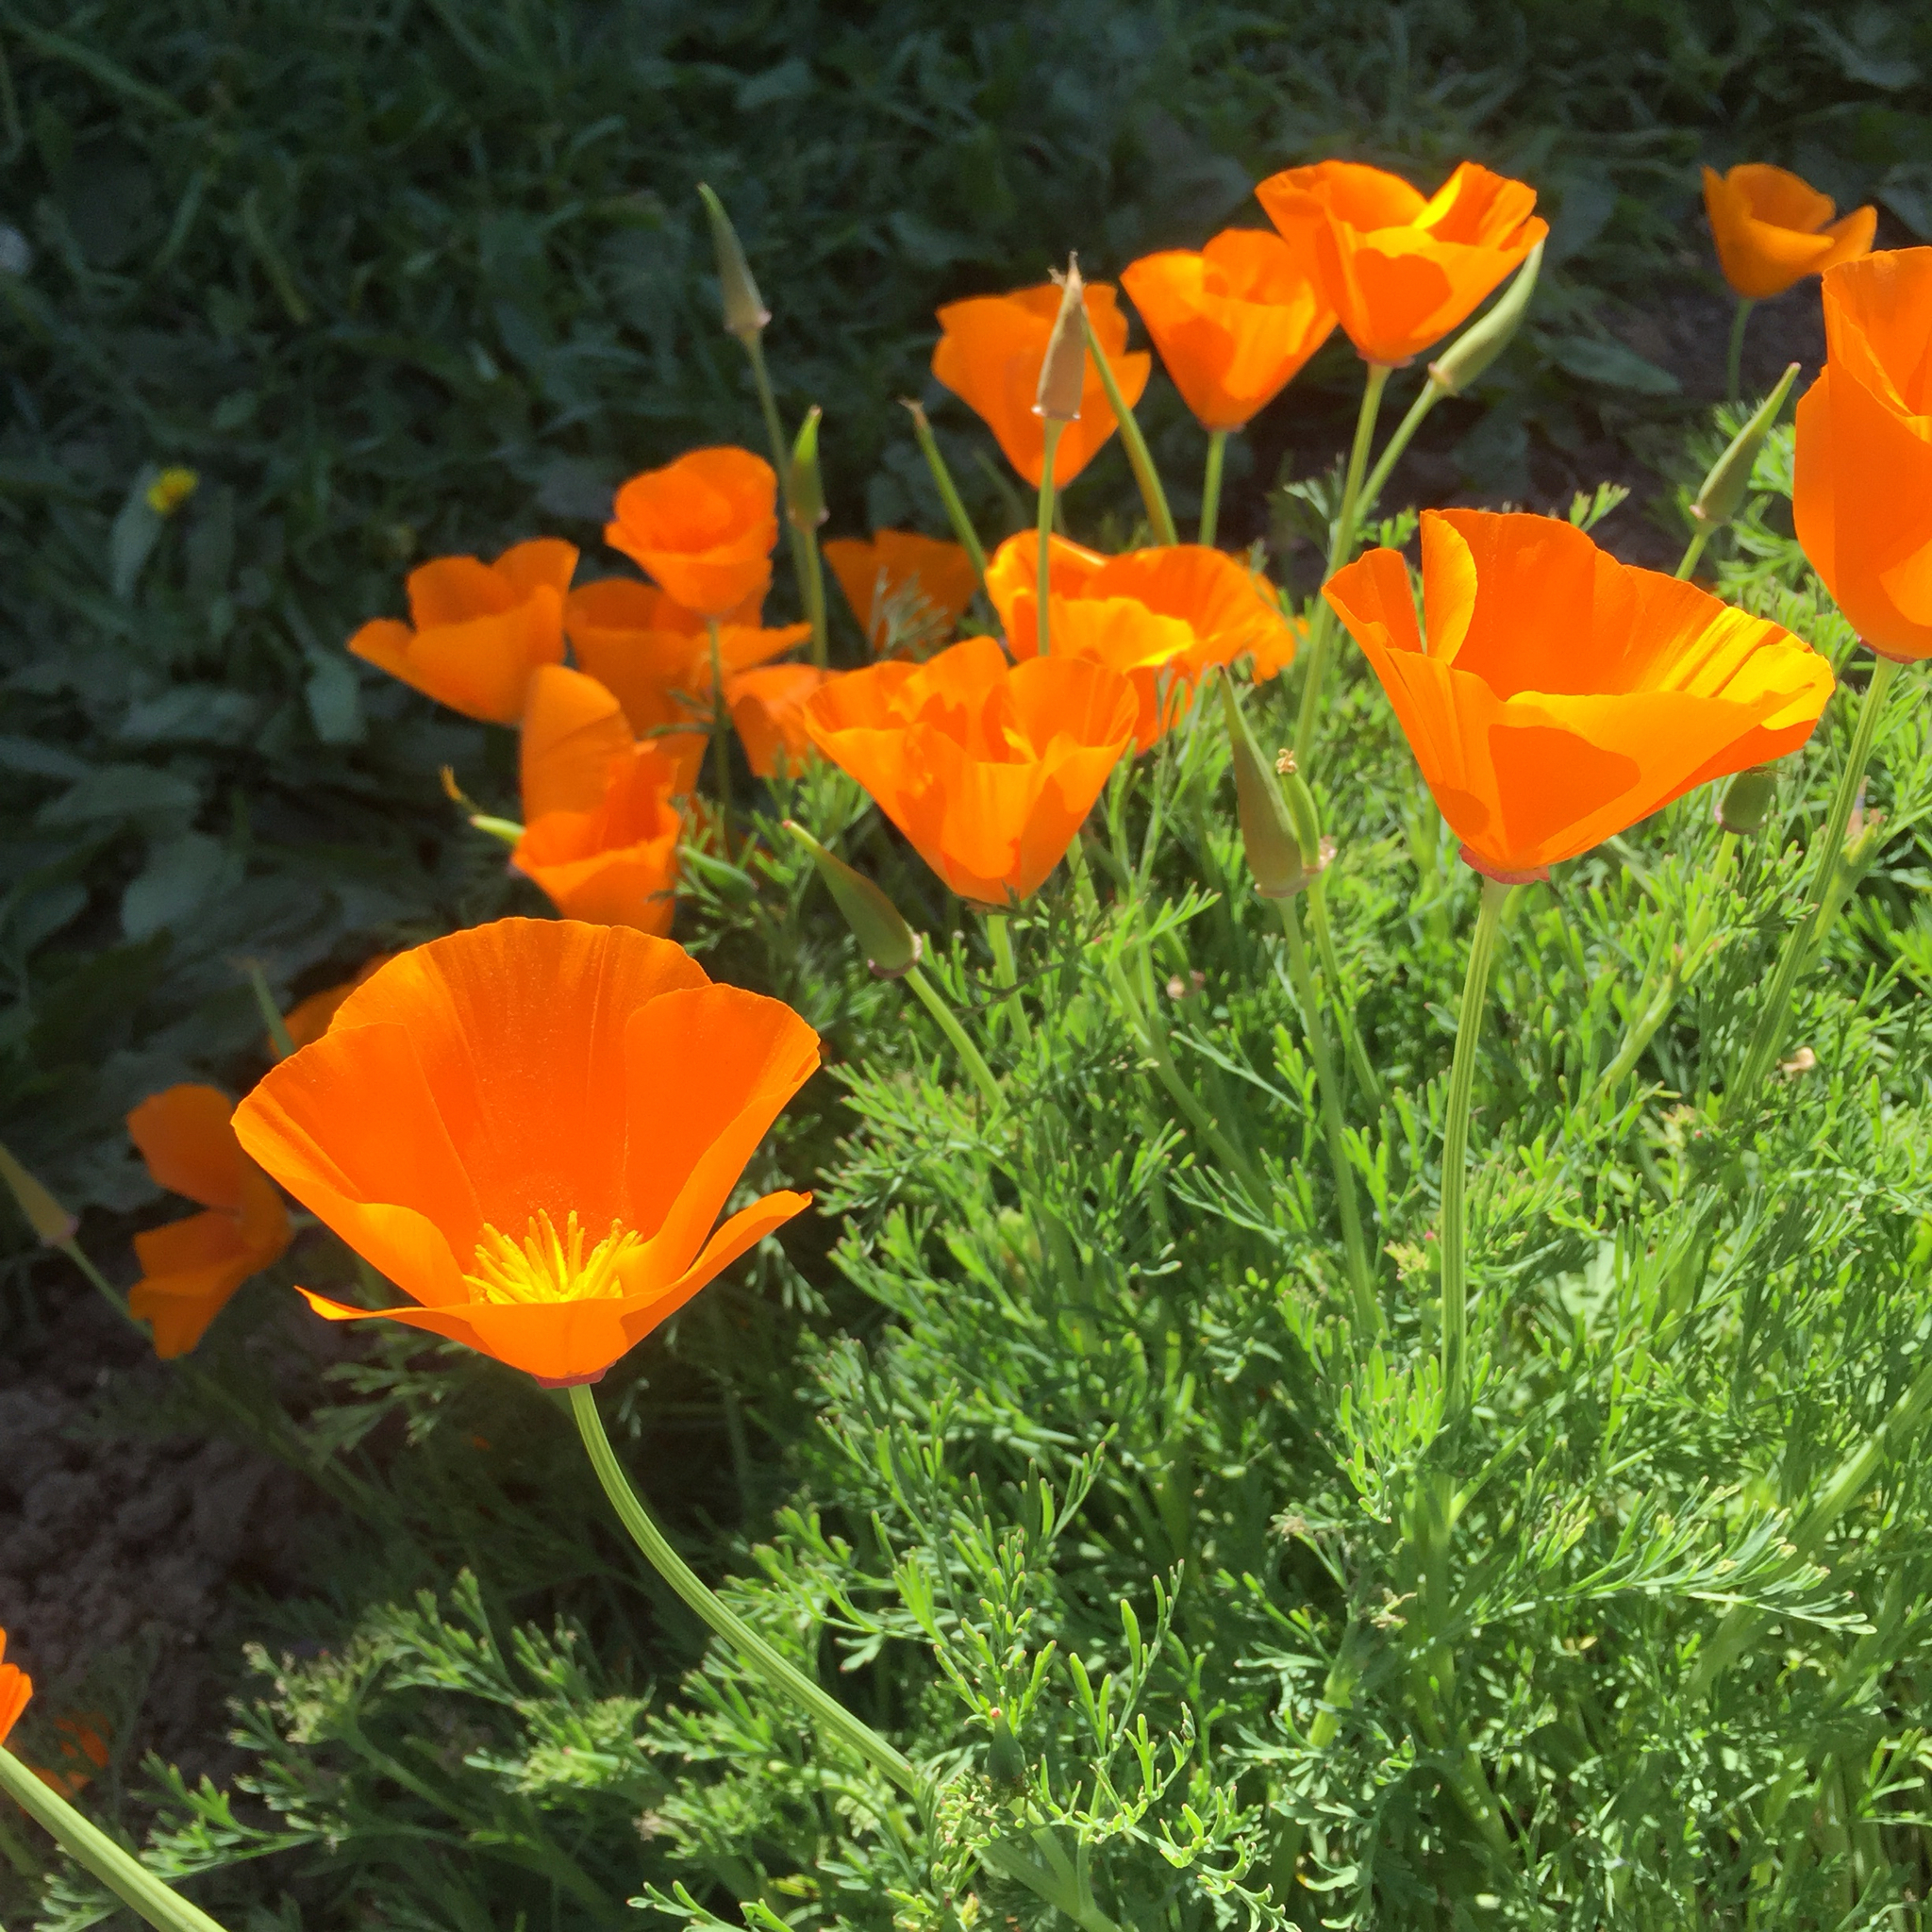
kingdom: Plantae
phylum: Tracheophyta
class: Magnoliopsida
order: Ranunculales
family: Papaveraceae
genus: Eschscholzia
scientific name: Eschscholzia californica
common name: California poppy
